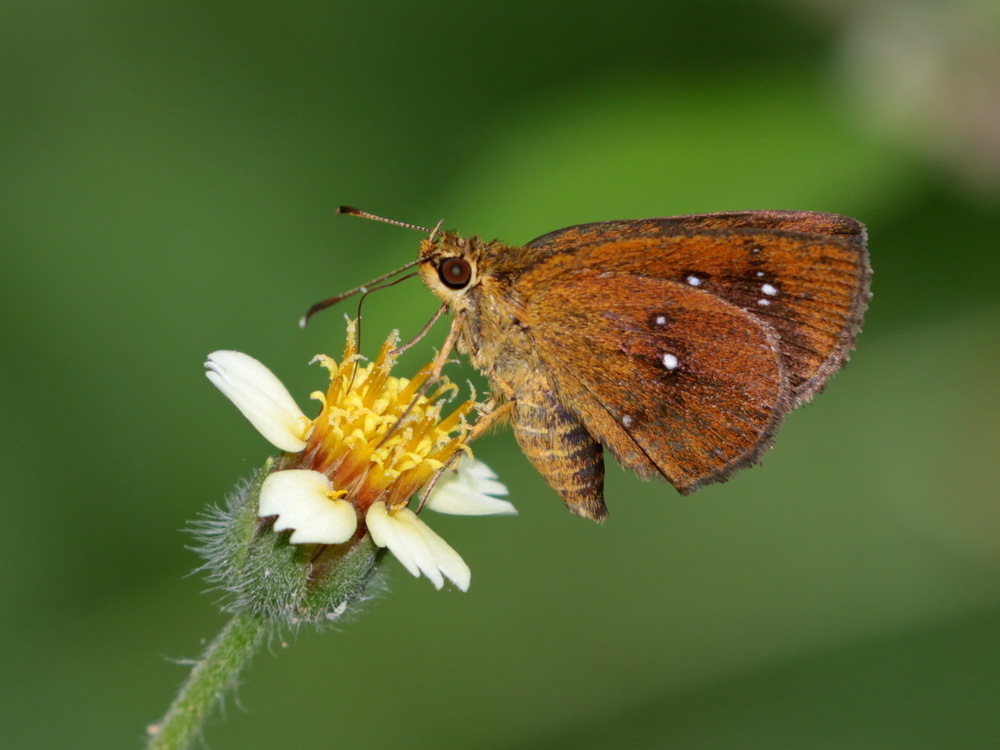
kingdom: Animalia
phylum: Arthropoda
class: Insecta
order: Lepidoptera
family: Hesperiidae
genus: Iambrix
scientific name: Iambrix salsala
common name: Chestnut bob
